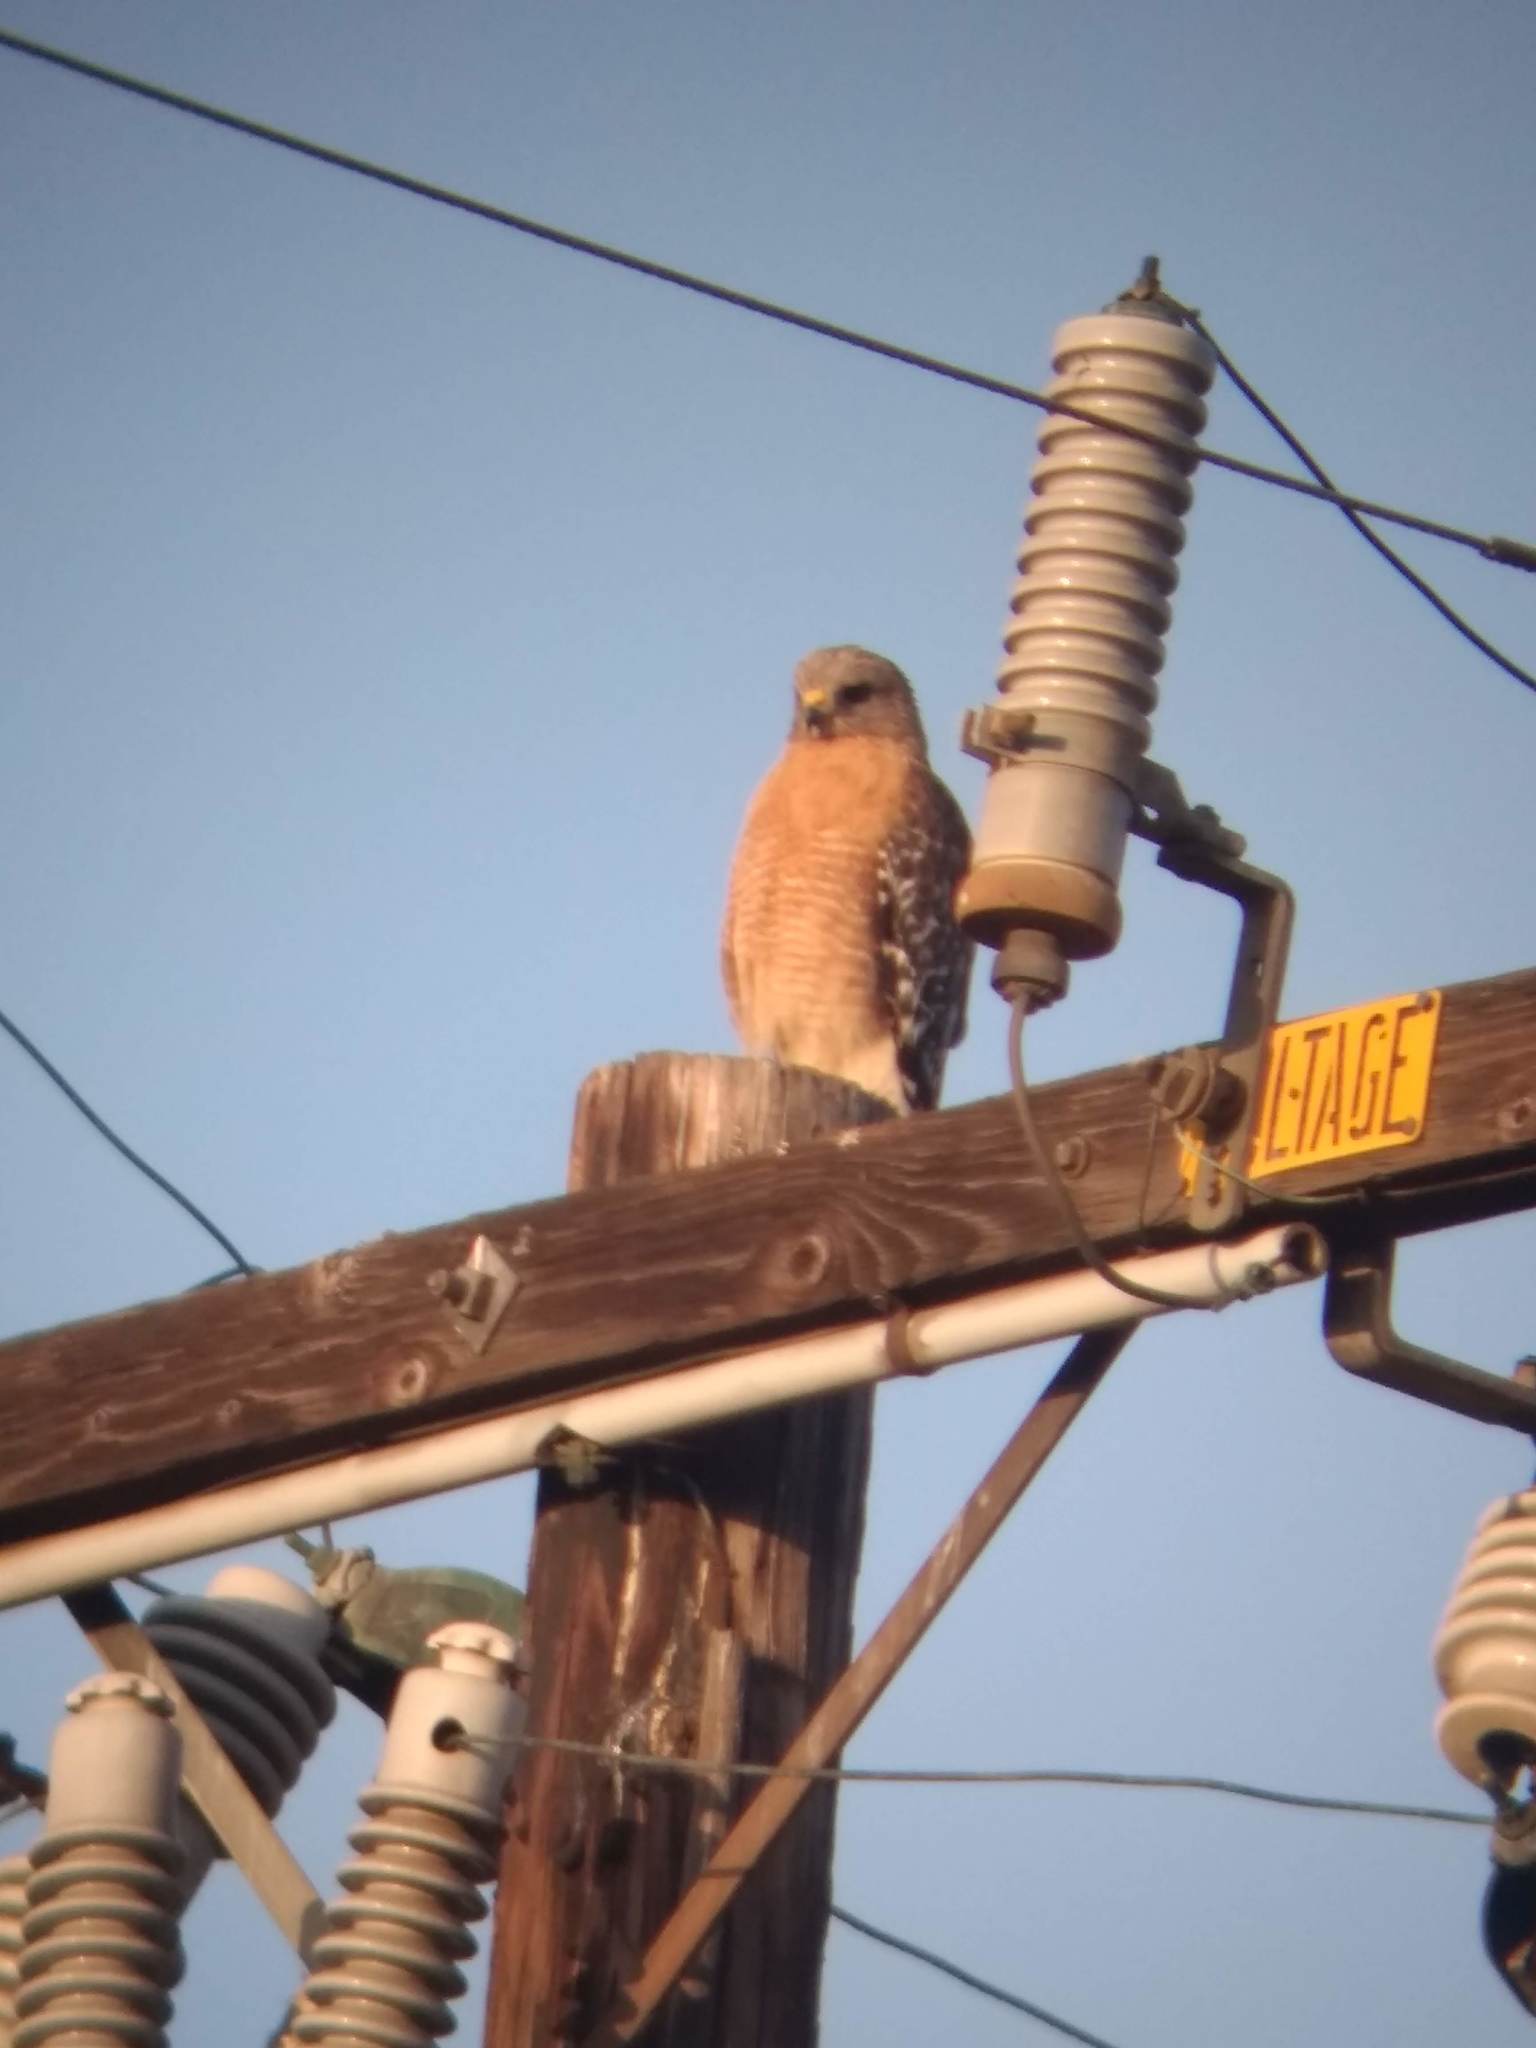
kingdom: Animalia
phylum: Chordata
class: Aves
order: Accipitriformes
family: Accipitridae
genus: Buteo
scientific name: Buteo lineatus
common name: Red-shouldered hawk
